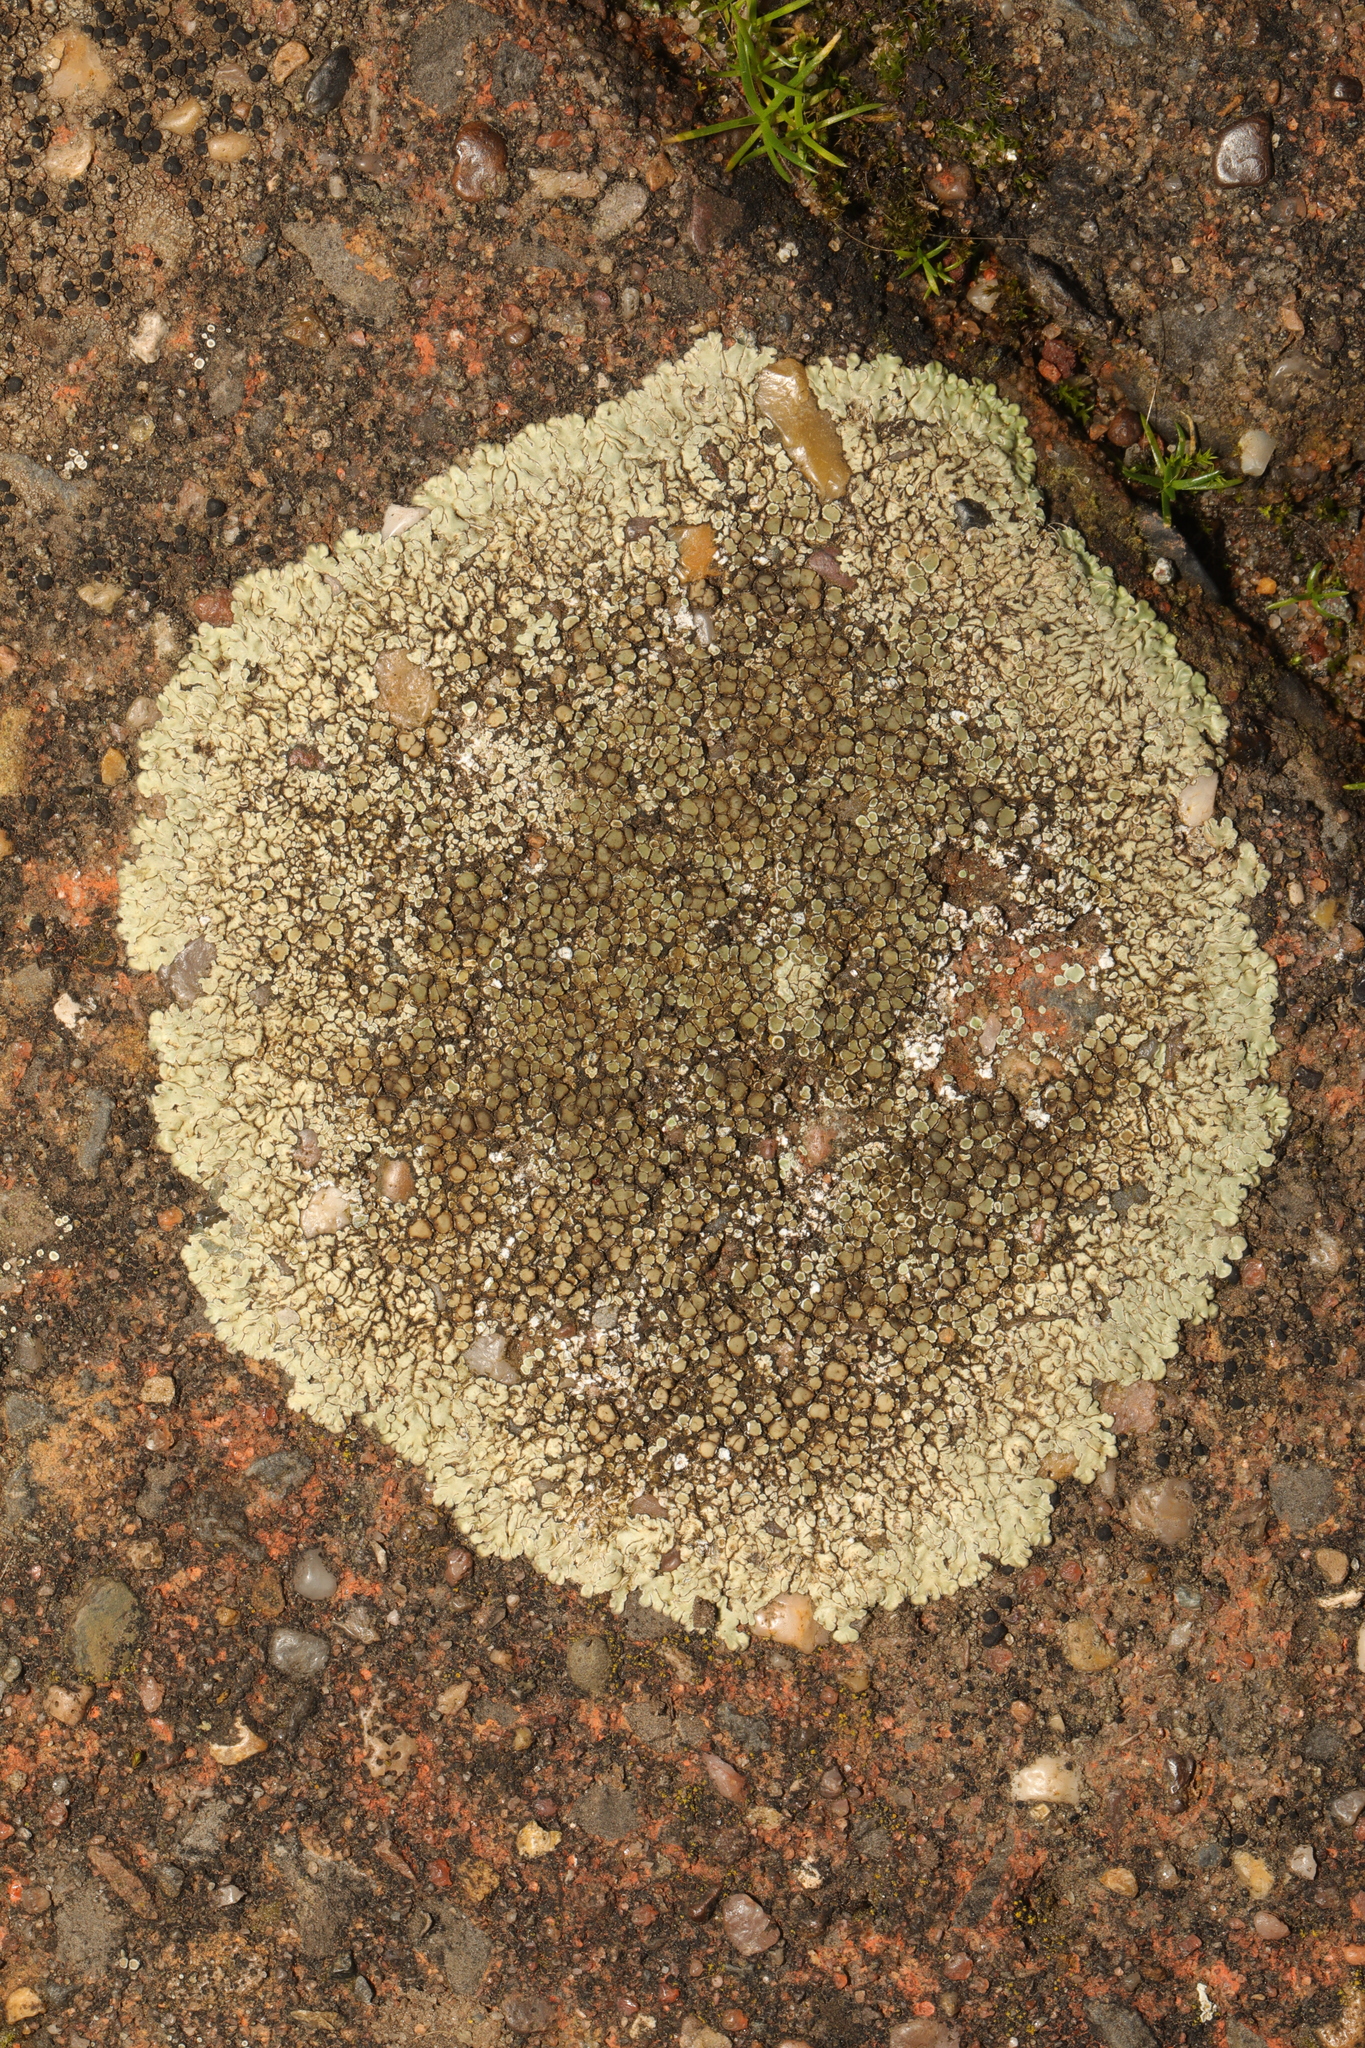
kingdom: Fungi
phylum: Ascomycota
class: Lecanoromycetes
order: Lecanorales
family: Lecanoraceae
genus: Protoparmeliopsis
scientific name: Protoparmeliopsis muralis
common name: Stonewall rim lichen
